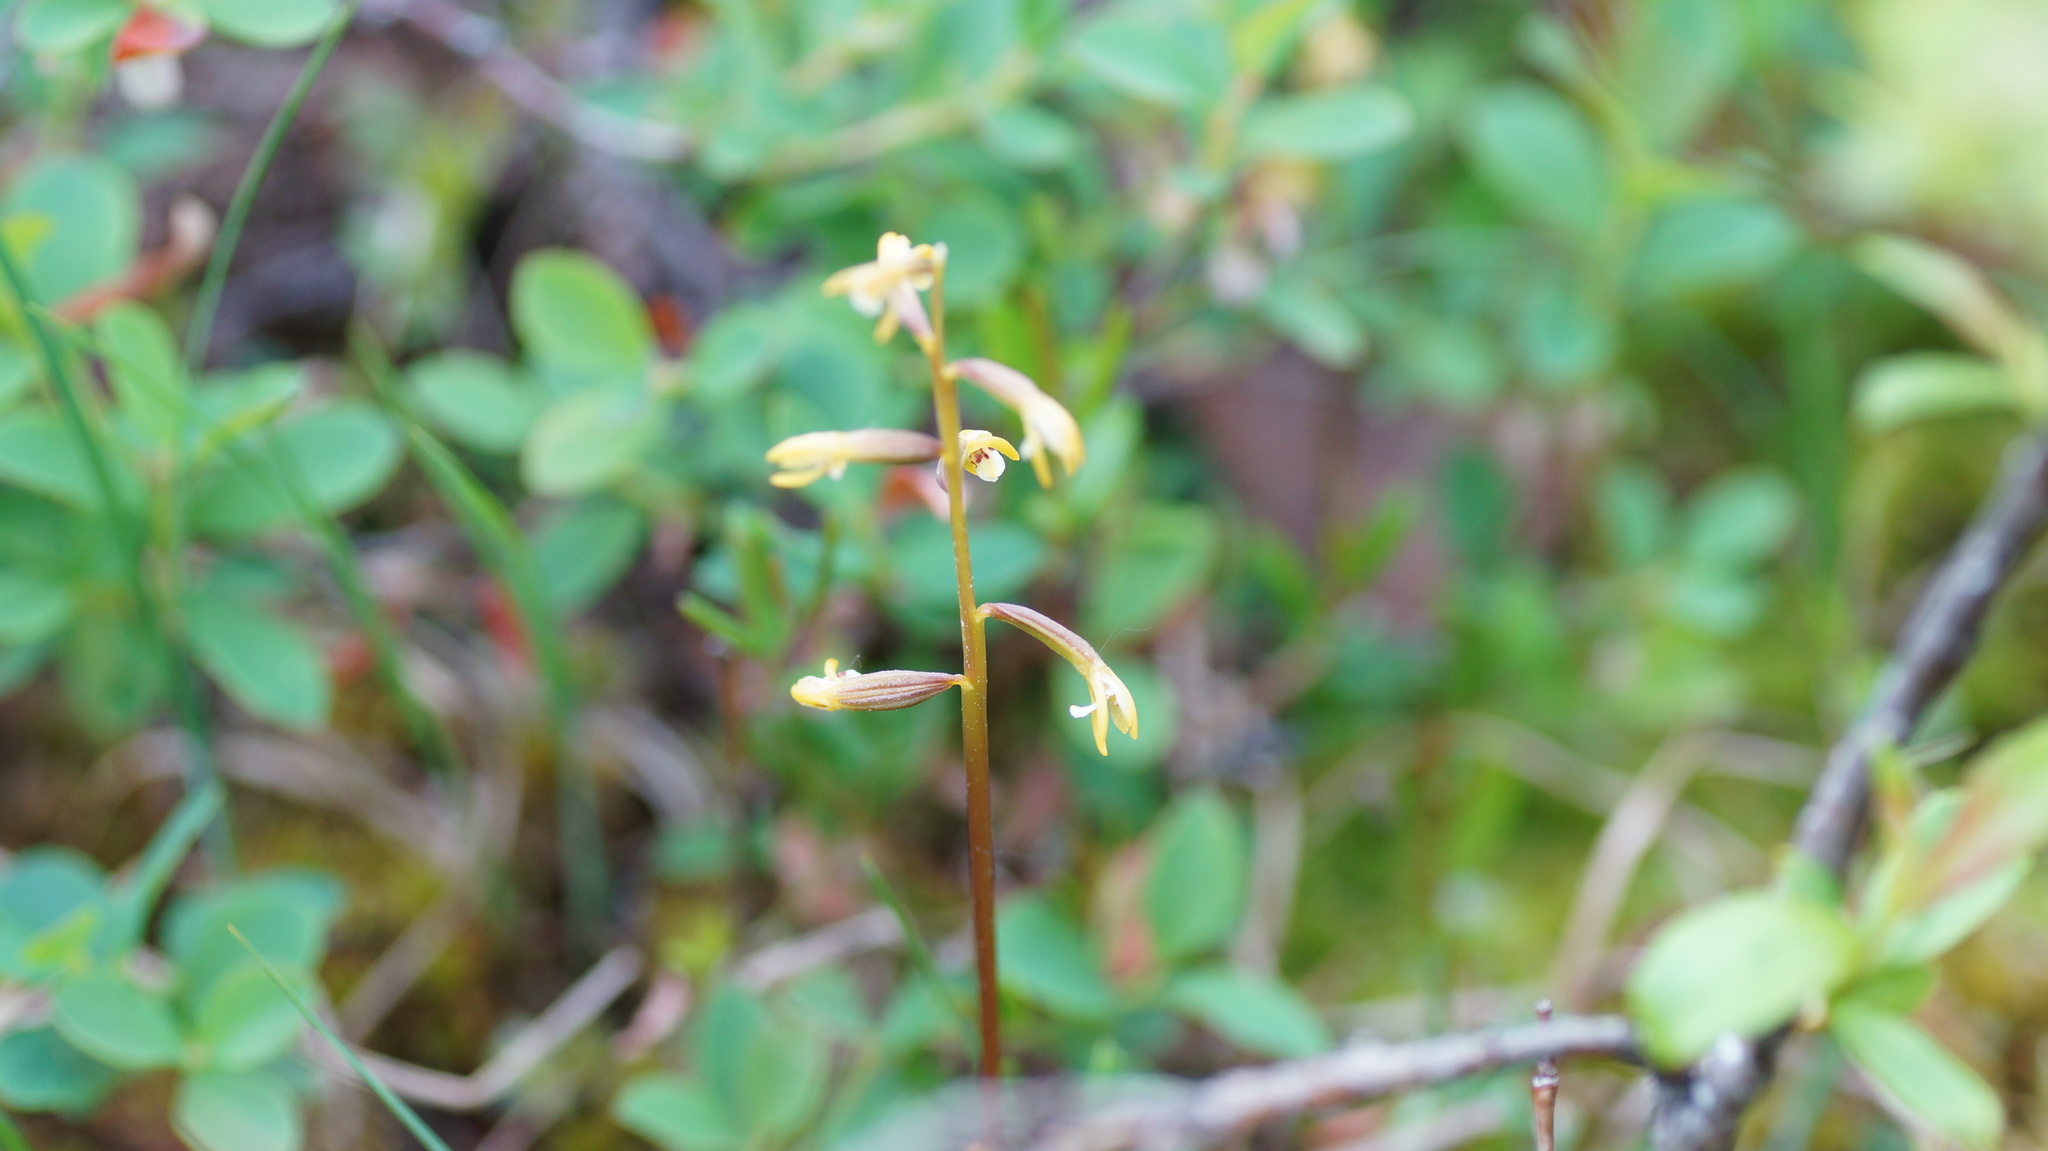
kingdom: Plantae
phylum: Tracheophyta
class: Liliopsida
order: Asparagales
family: Orchidaceae
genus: Corallorhiza
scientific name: Corallorhiza trifida
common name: Yellow coralroot
